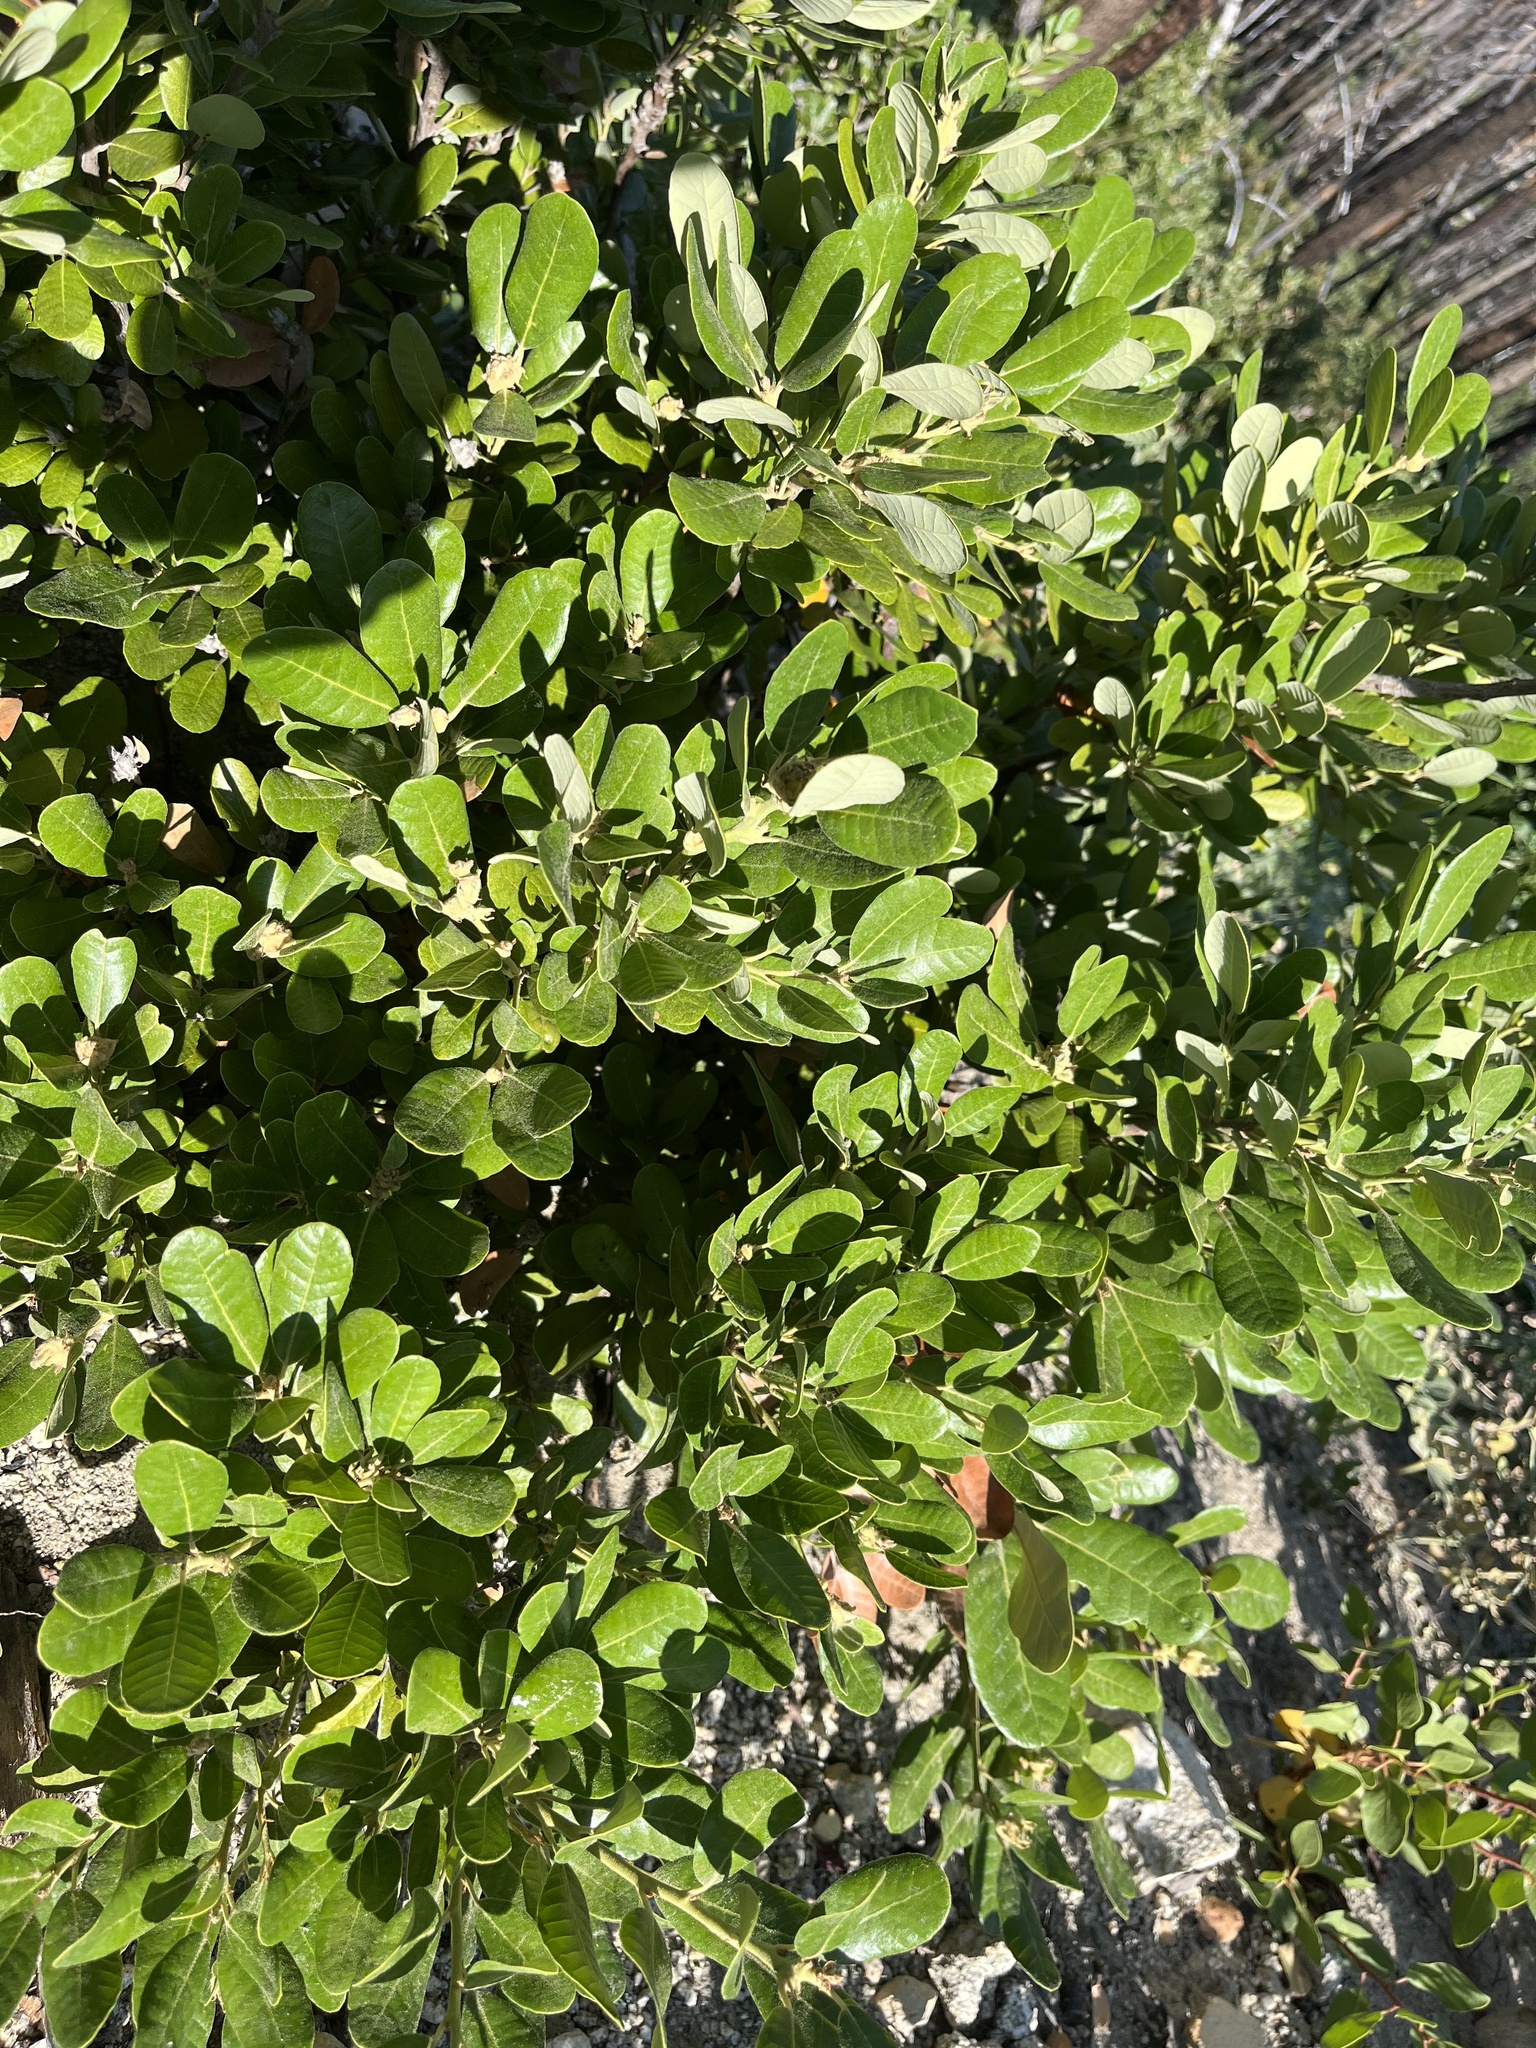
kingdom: Plantae
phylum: Tracheophyta
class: Magnoliopsida
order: Fagales
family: Fagaceae
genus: Notholithocarpus
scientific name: Notholithocarpus densiflorus
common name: Tan bark oak
